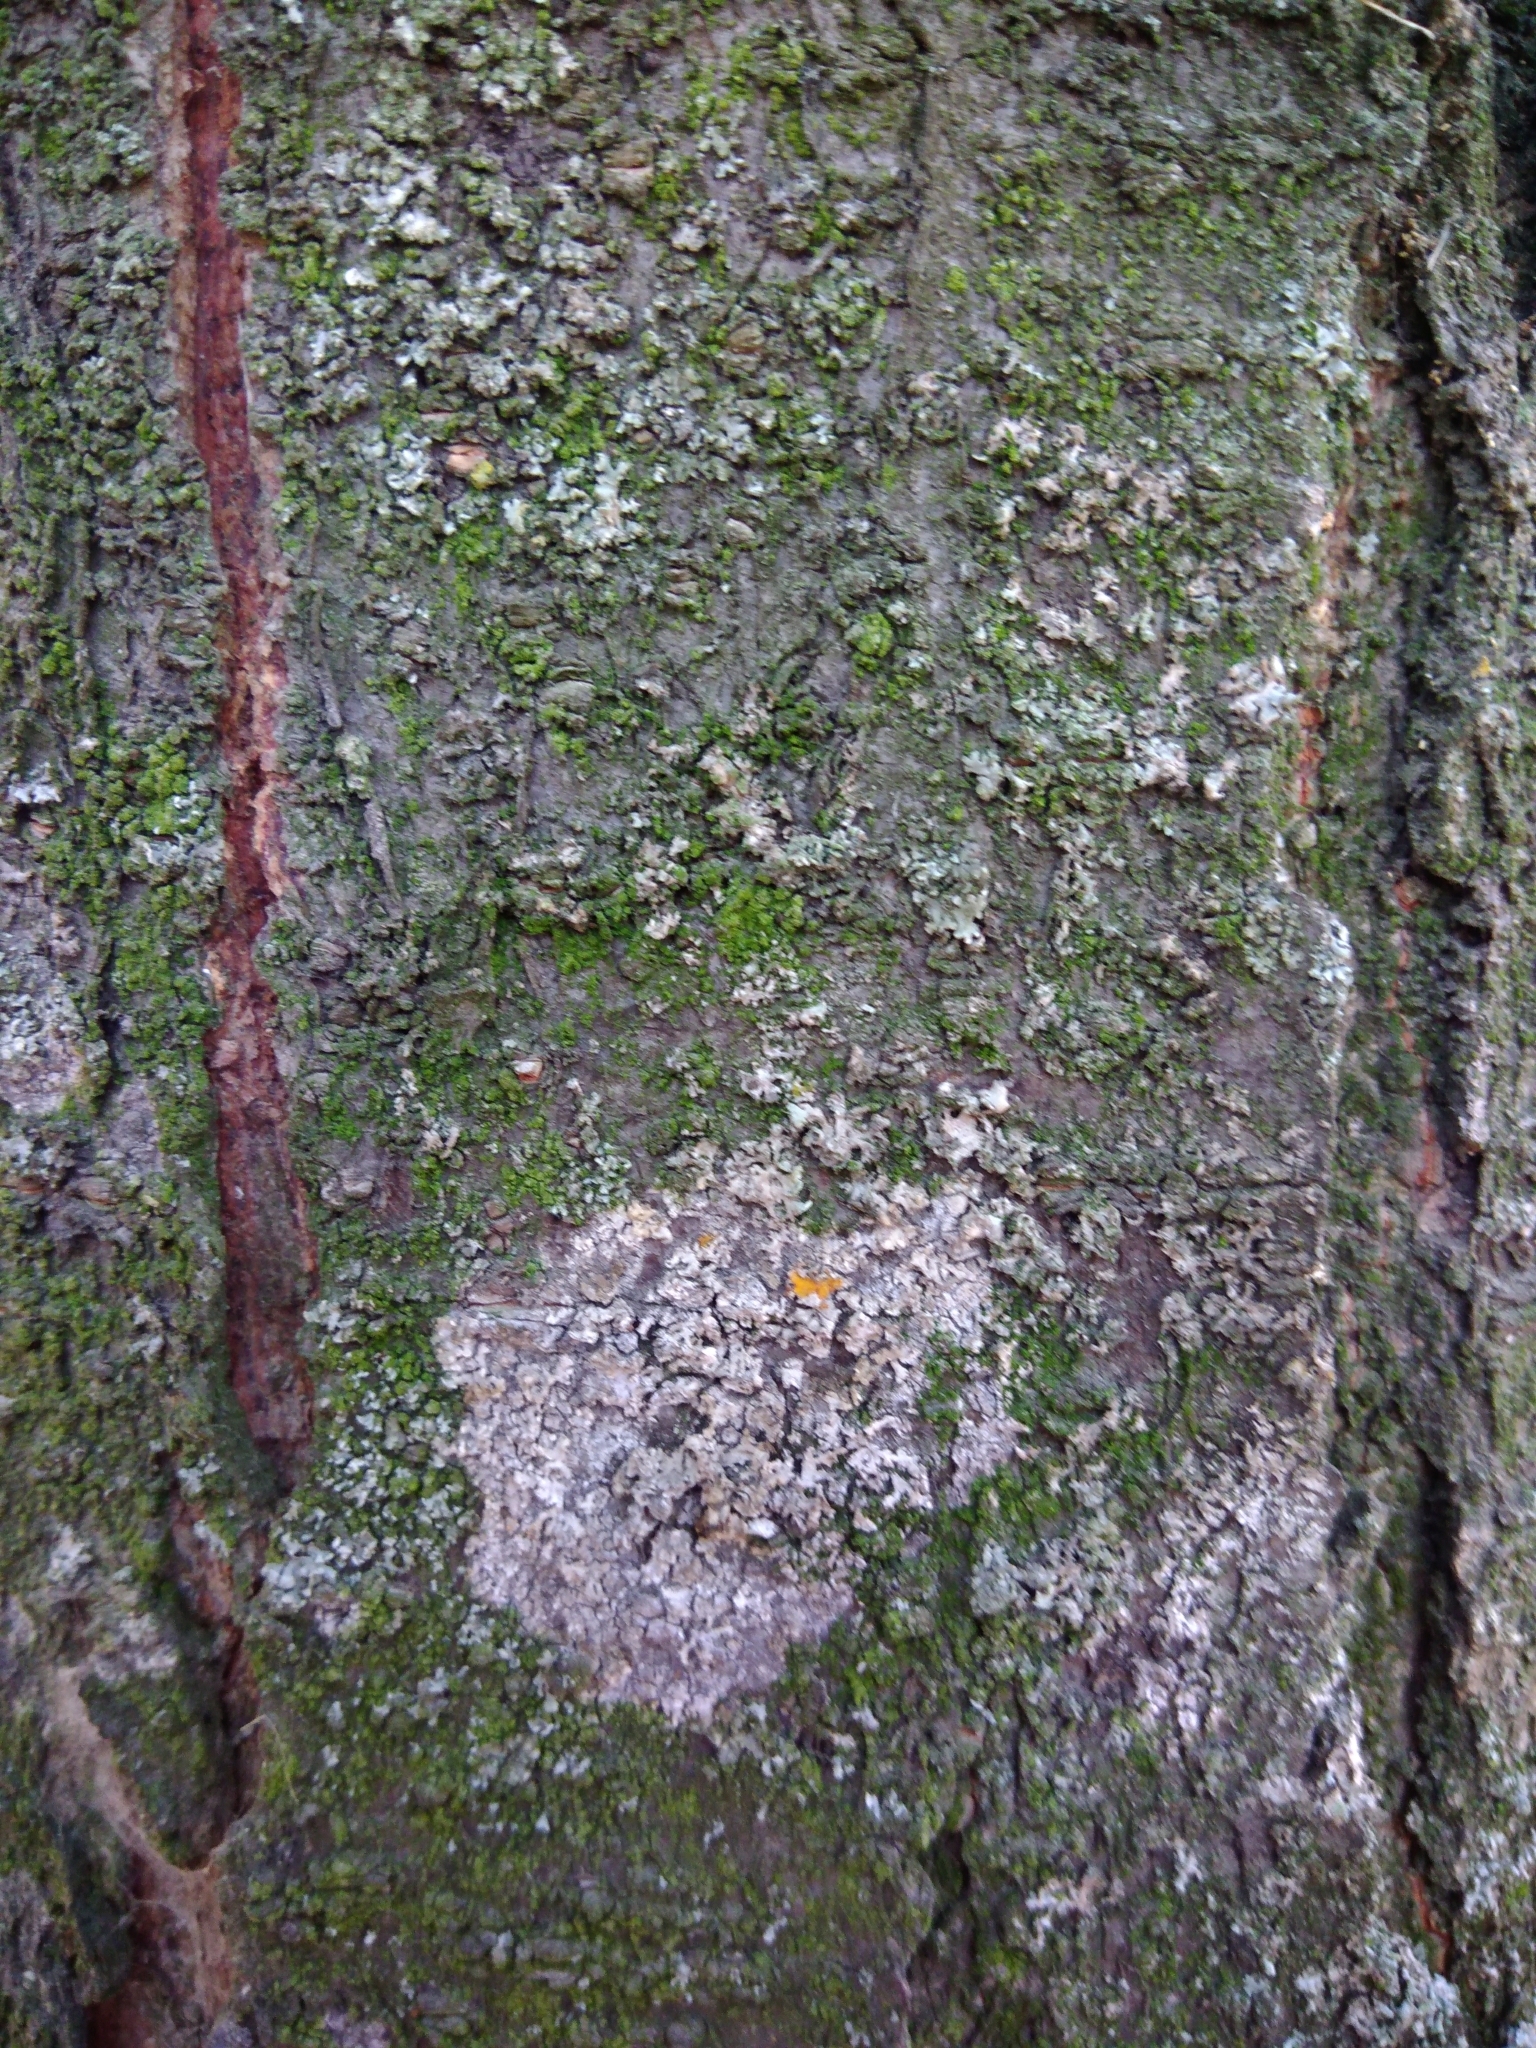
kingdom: Fungi
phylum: Basidiomycota
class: Agaricomycetes
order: Atheliales
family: Atheliaceae
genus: Athelia
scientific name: Athelia arachnoidea
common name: Candelabra duster
